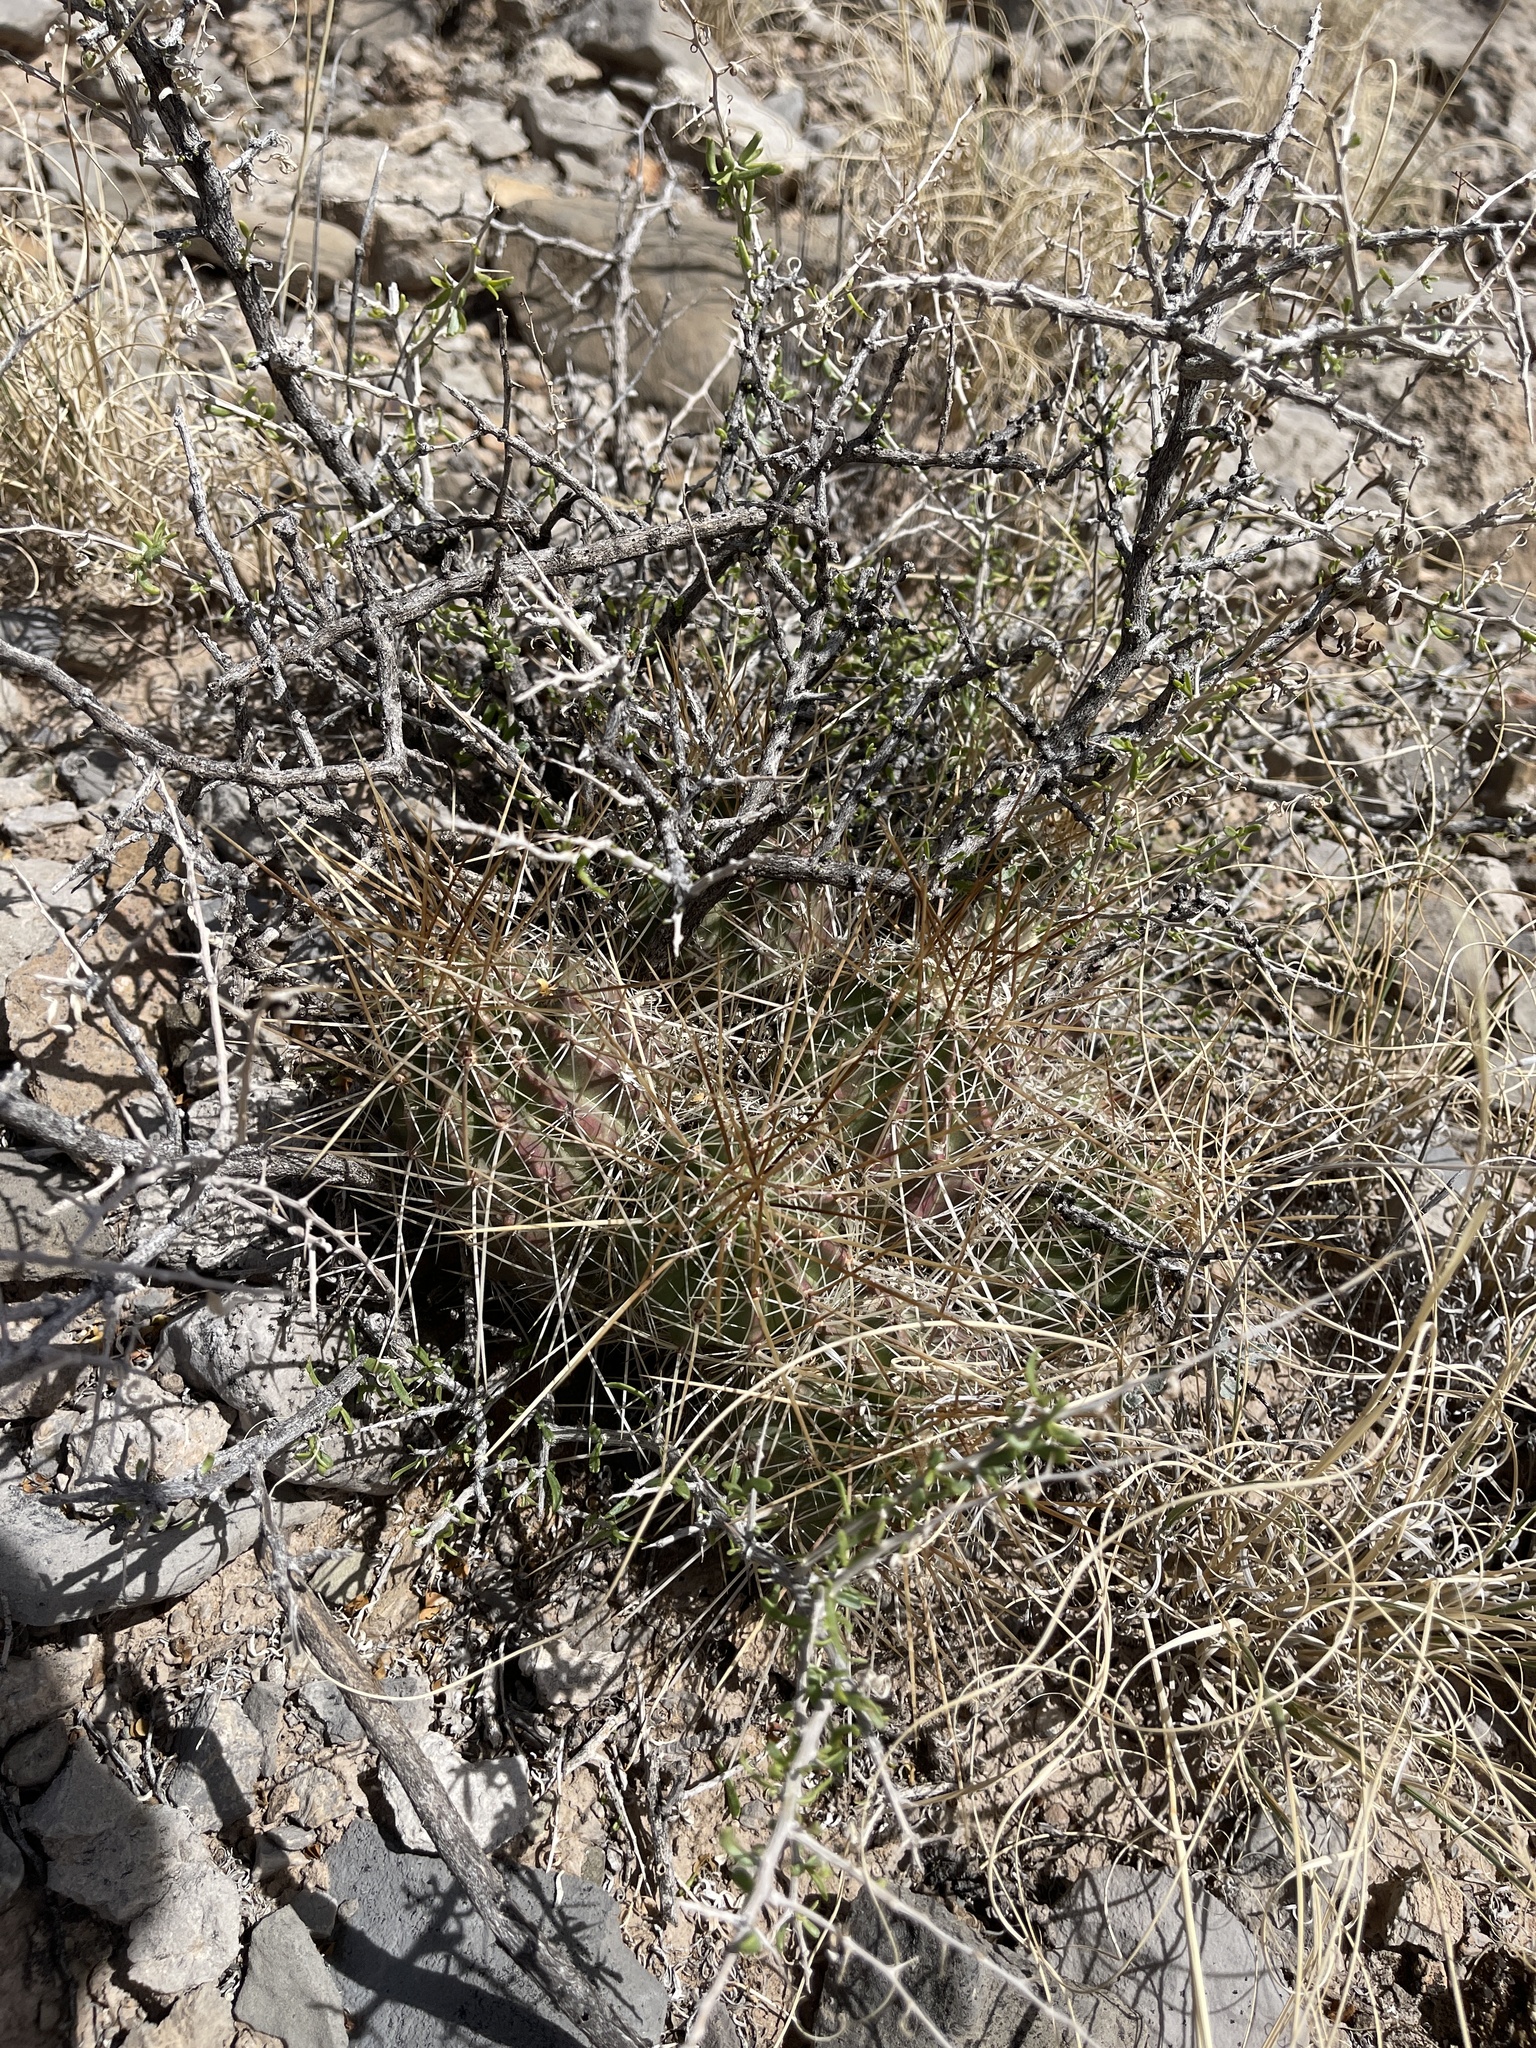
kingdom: Plantae
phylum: Tracheophyta
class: Magnoliopsida
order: Caryophyllales
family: Cactaceae
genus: Echinocereus
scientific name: Echinocereus stramineus
